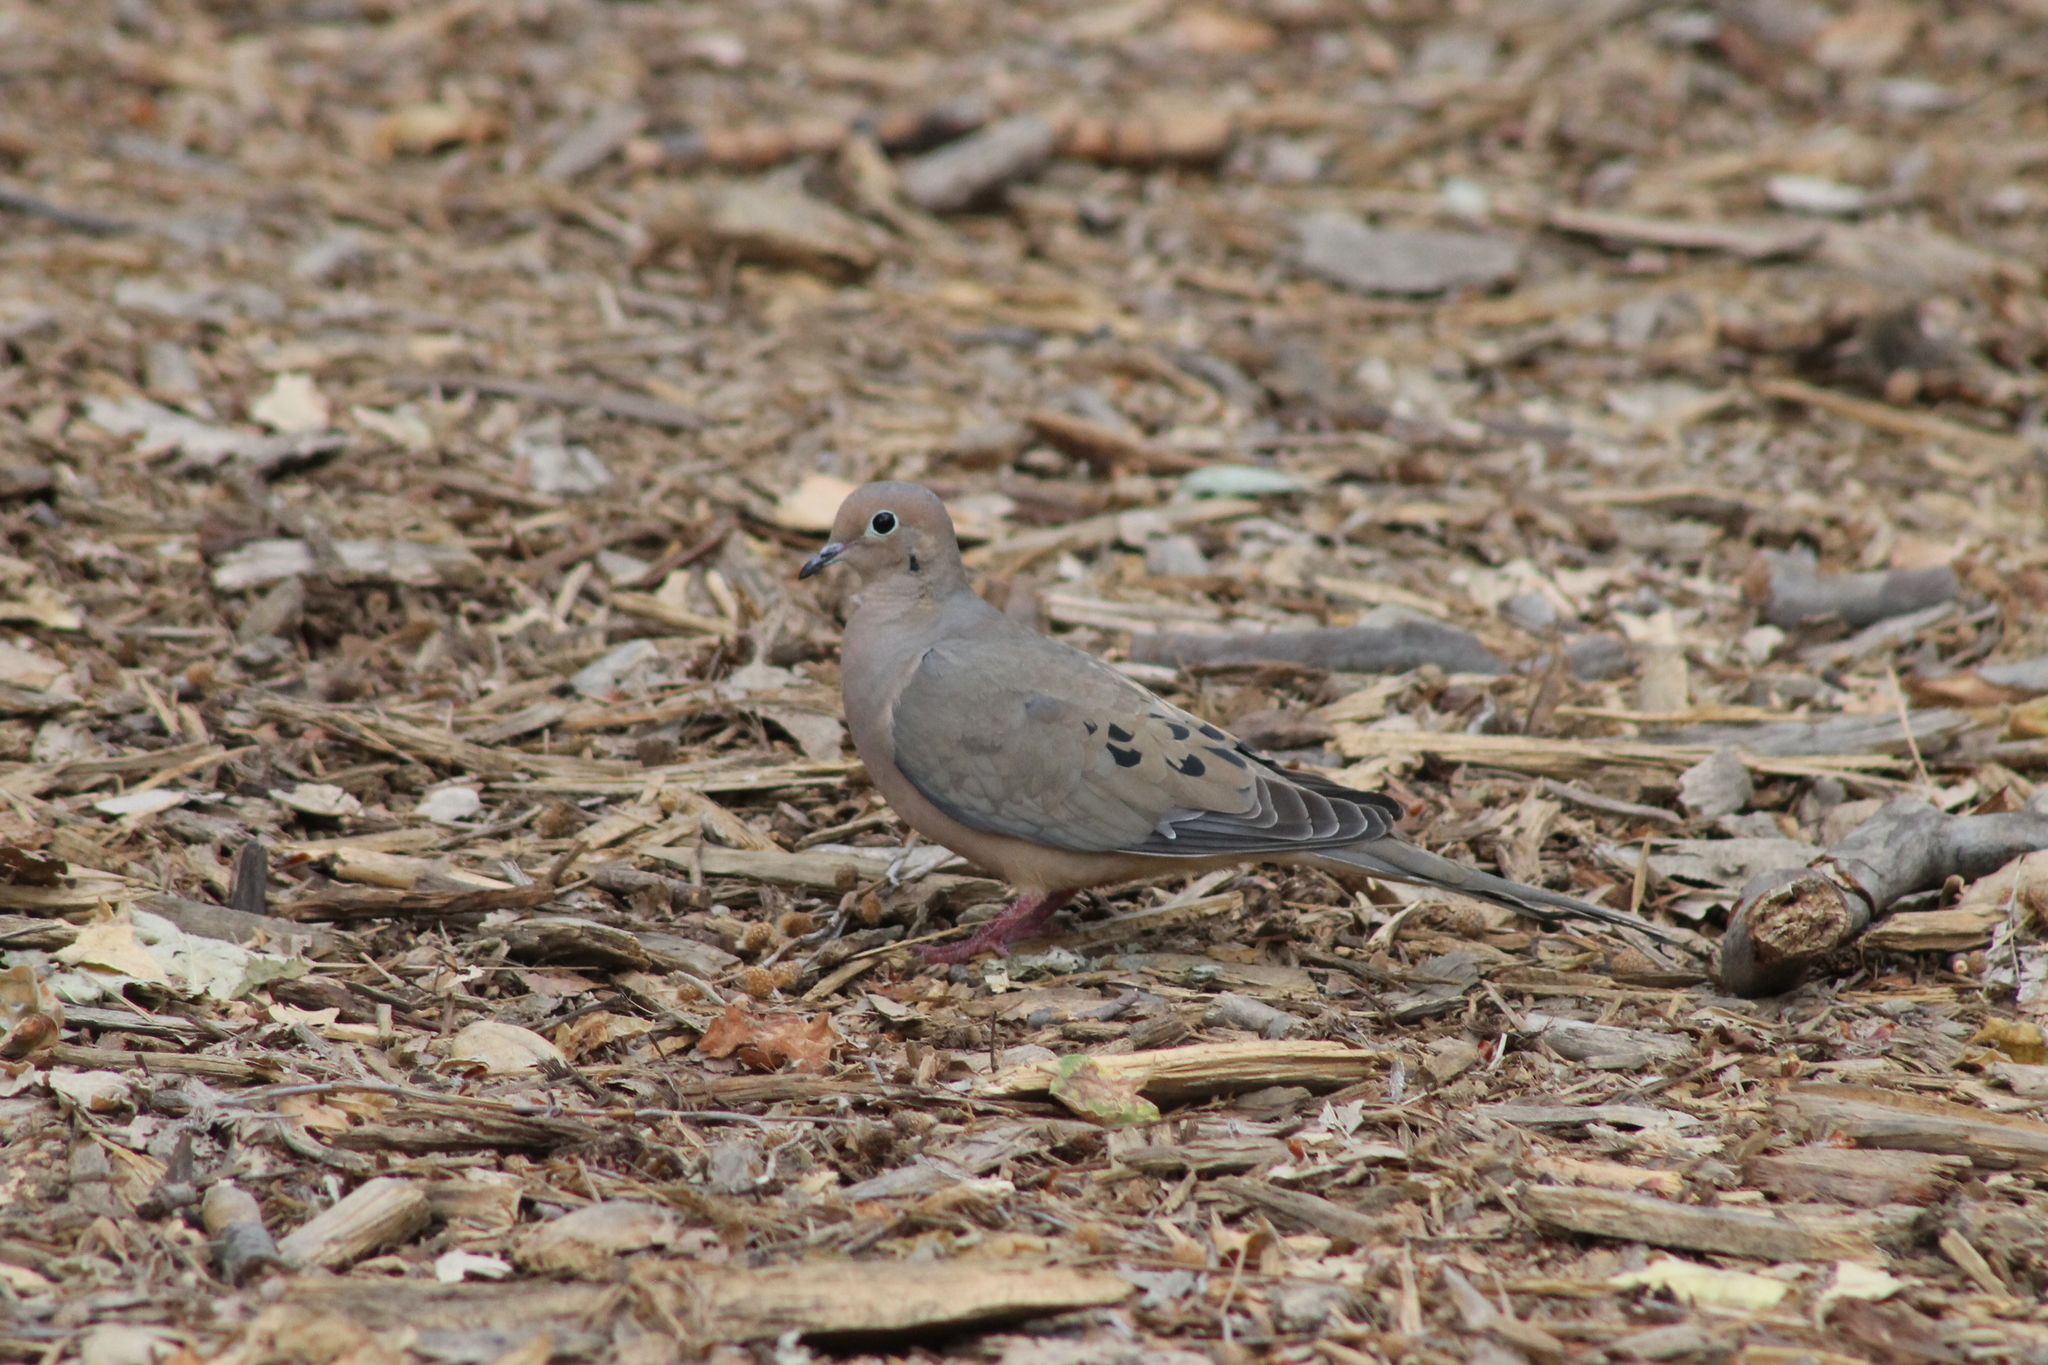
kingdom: Animalia
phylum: Chordata
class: Aves
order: Columbiformes
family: Columbidae
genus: Zenaida
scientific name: Zenaida macroura
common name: Mourning dove
